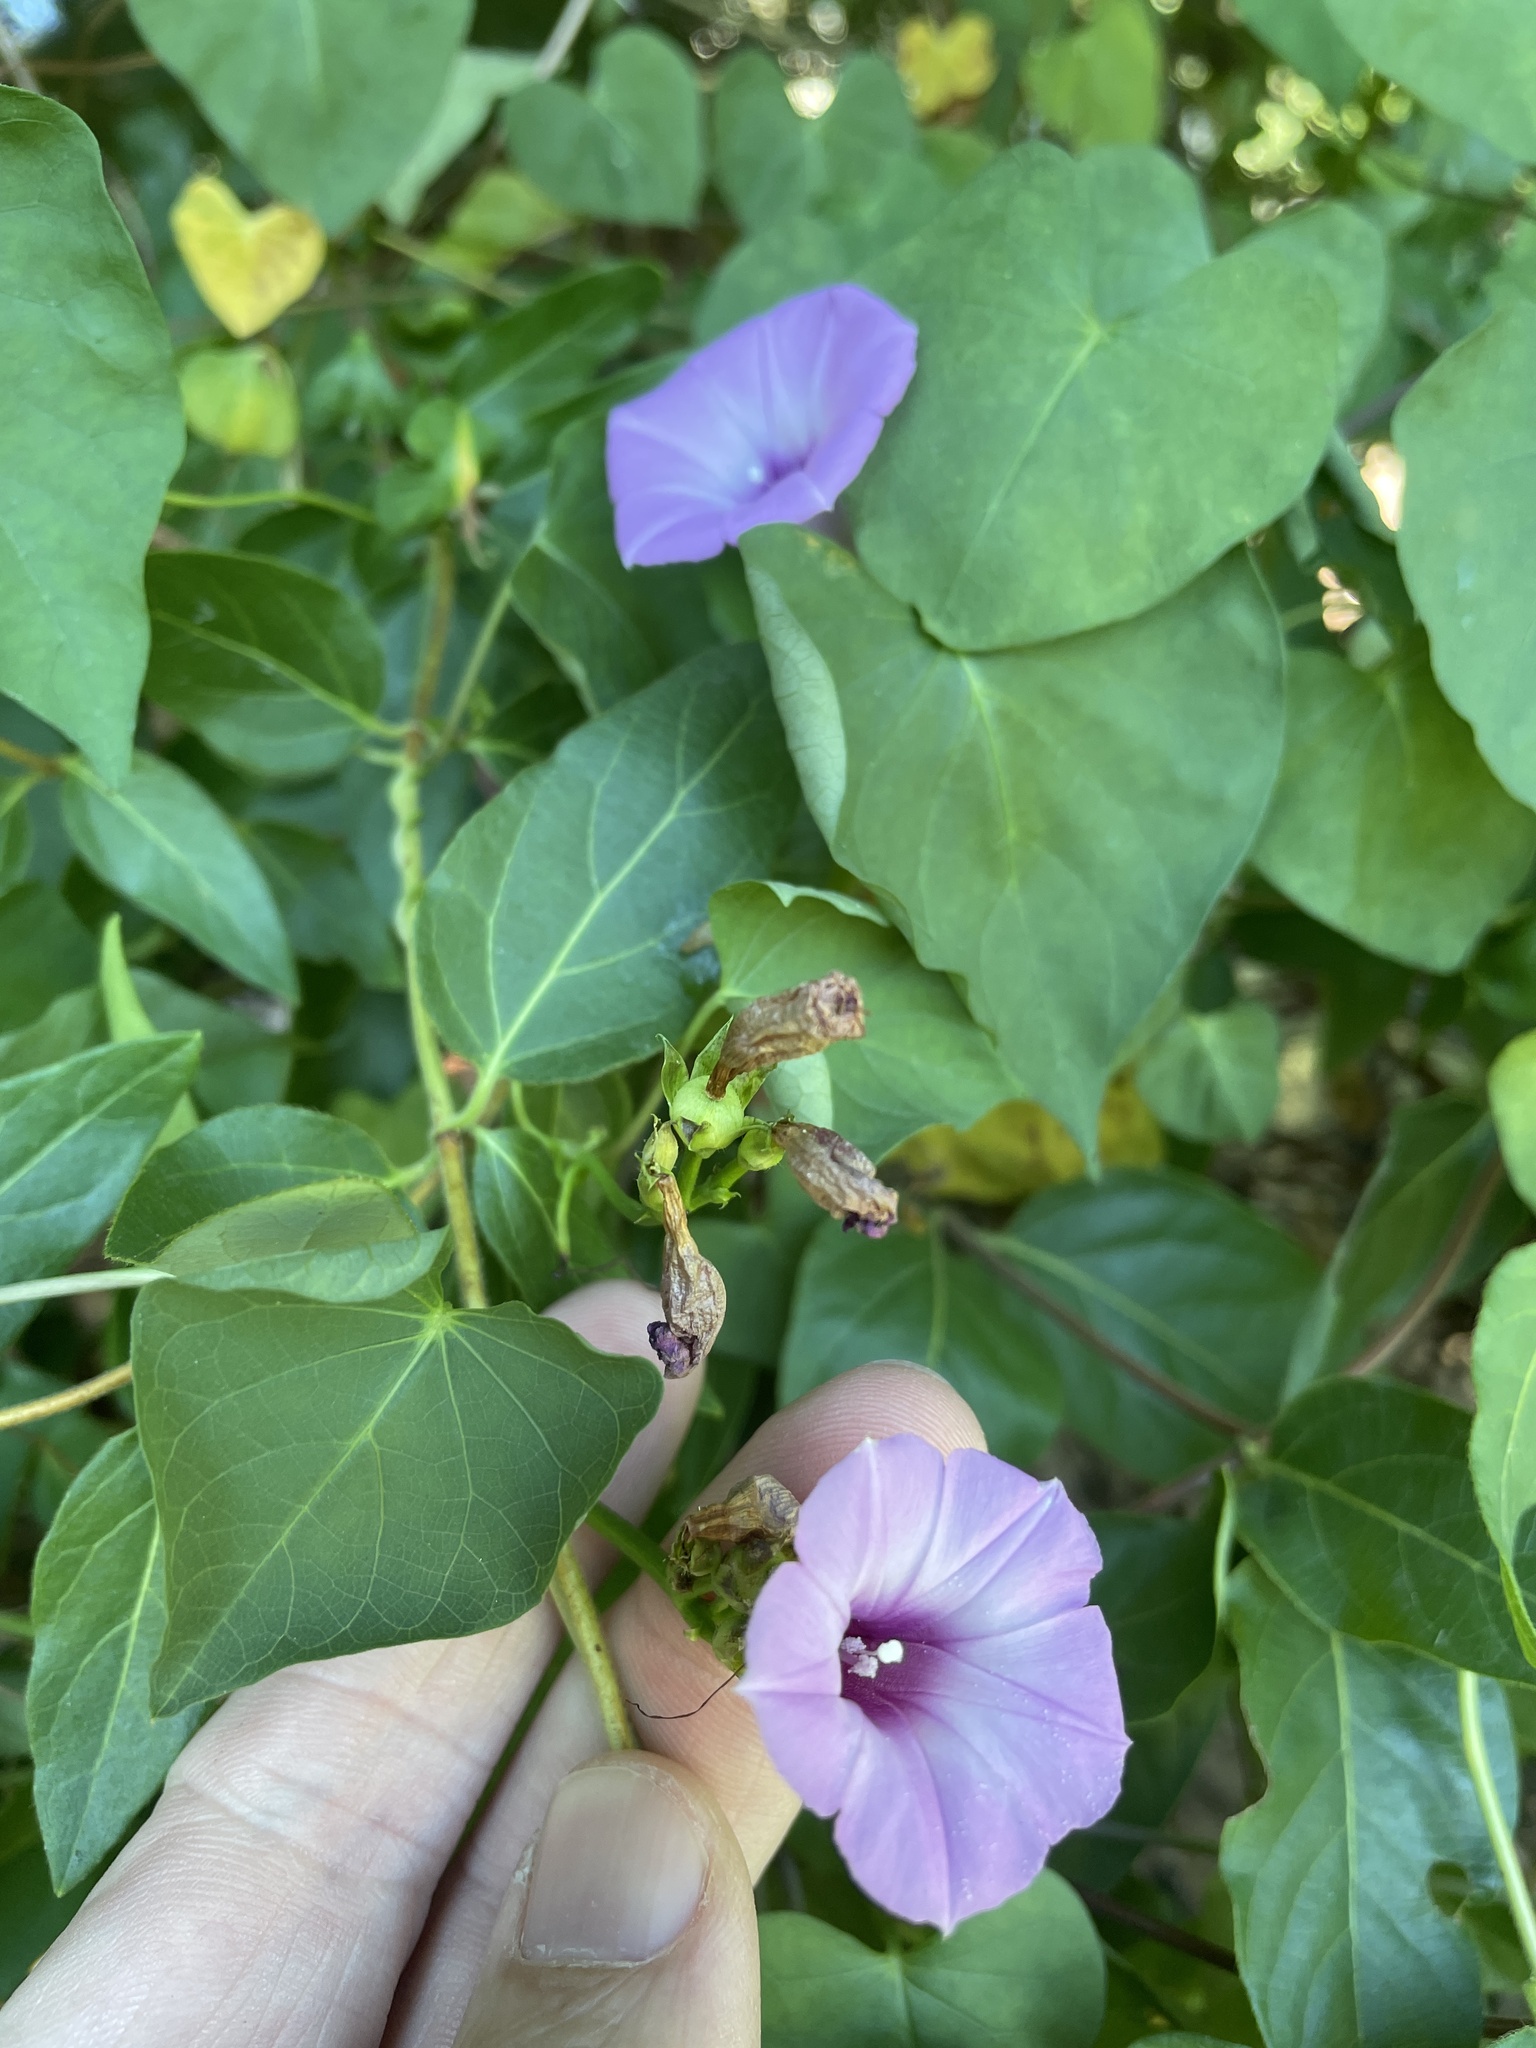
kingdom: Plantae
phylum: Tracheophyta
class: Magnoliopsida
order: Solanales
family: Convolvulaceae
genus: Ipomoea
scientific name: Ipomoea cordatotriloba
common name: Cotton morning glory
